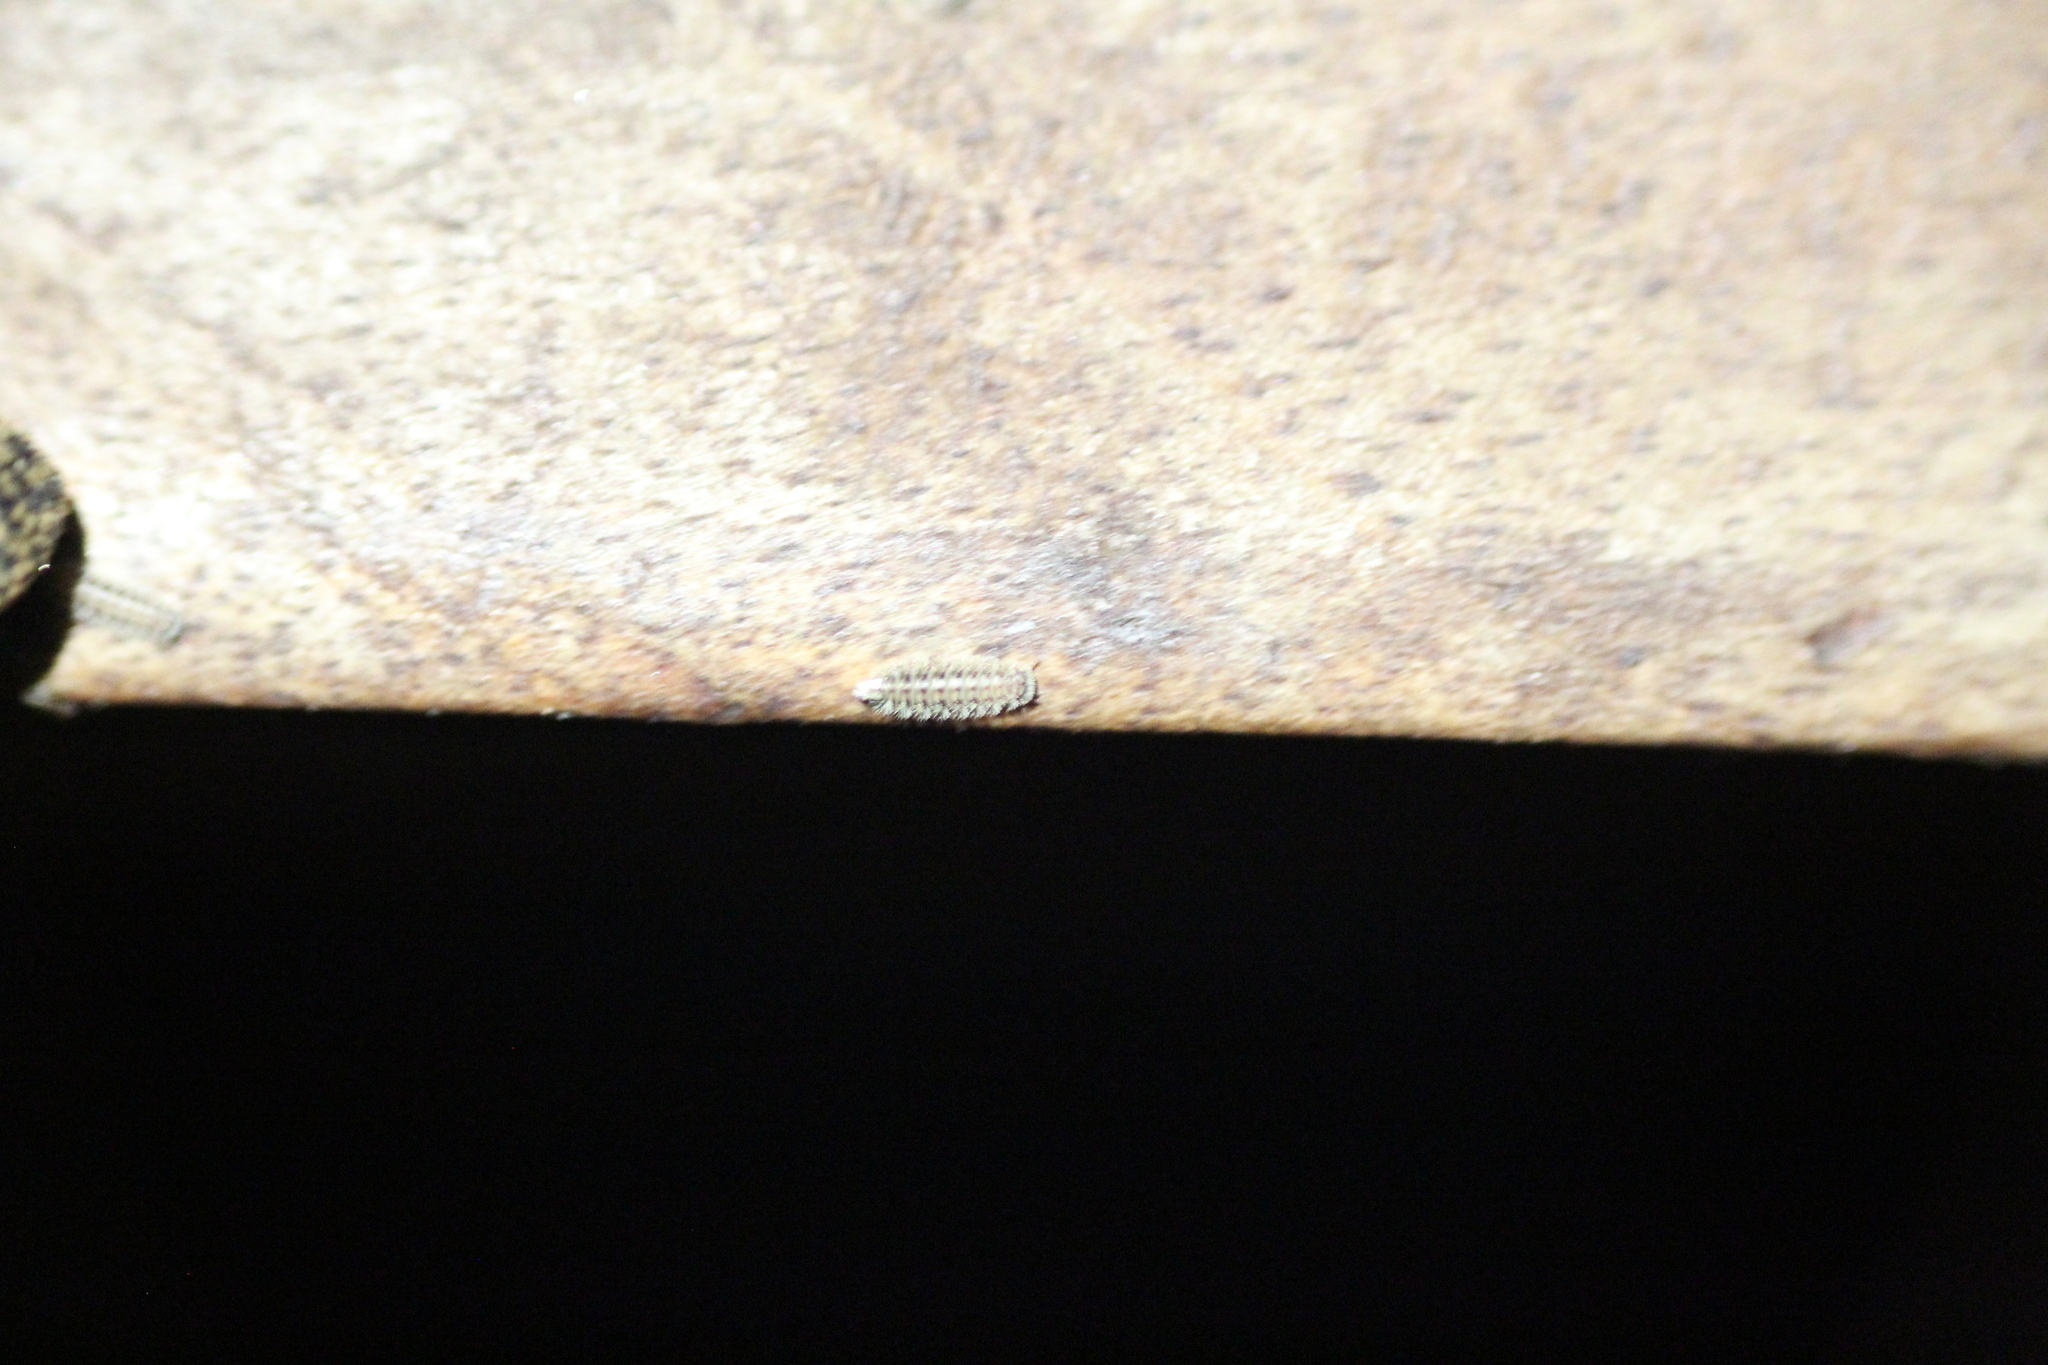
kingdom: Animalia
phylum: Arthropoda
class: Diplopoda
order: Polyxenida
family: Polyxenidae
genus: Polyxenus
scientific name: Polyxenus lagurus
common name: Bristly millipede
